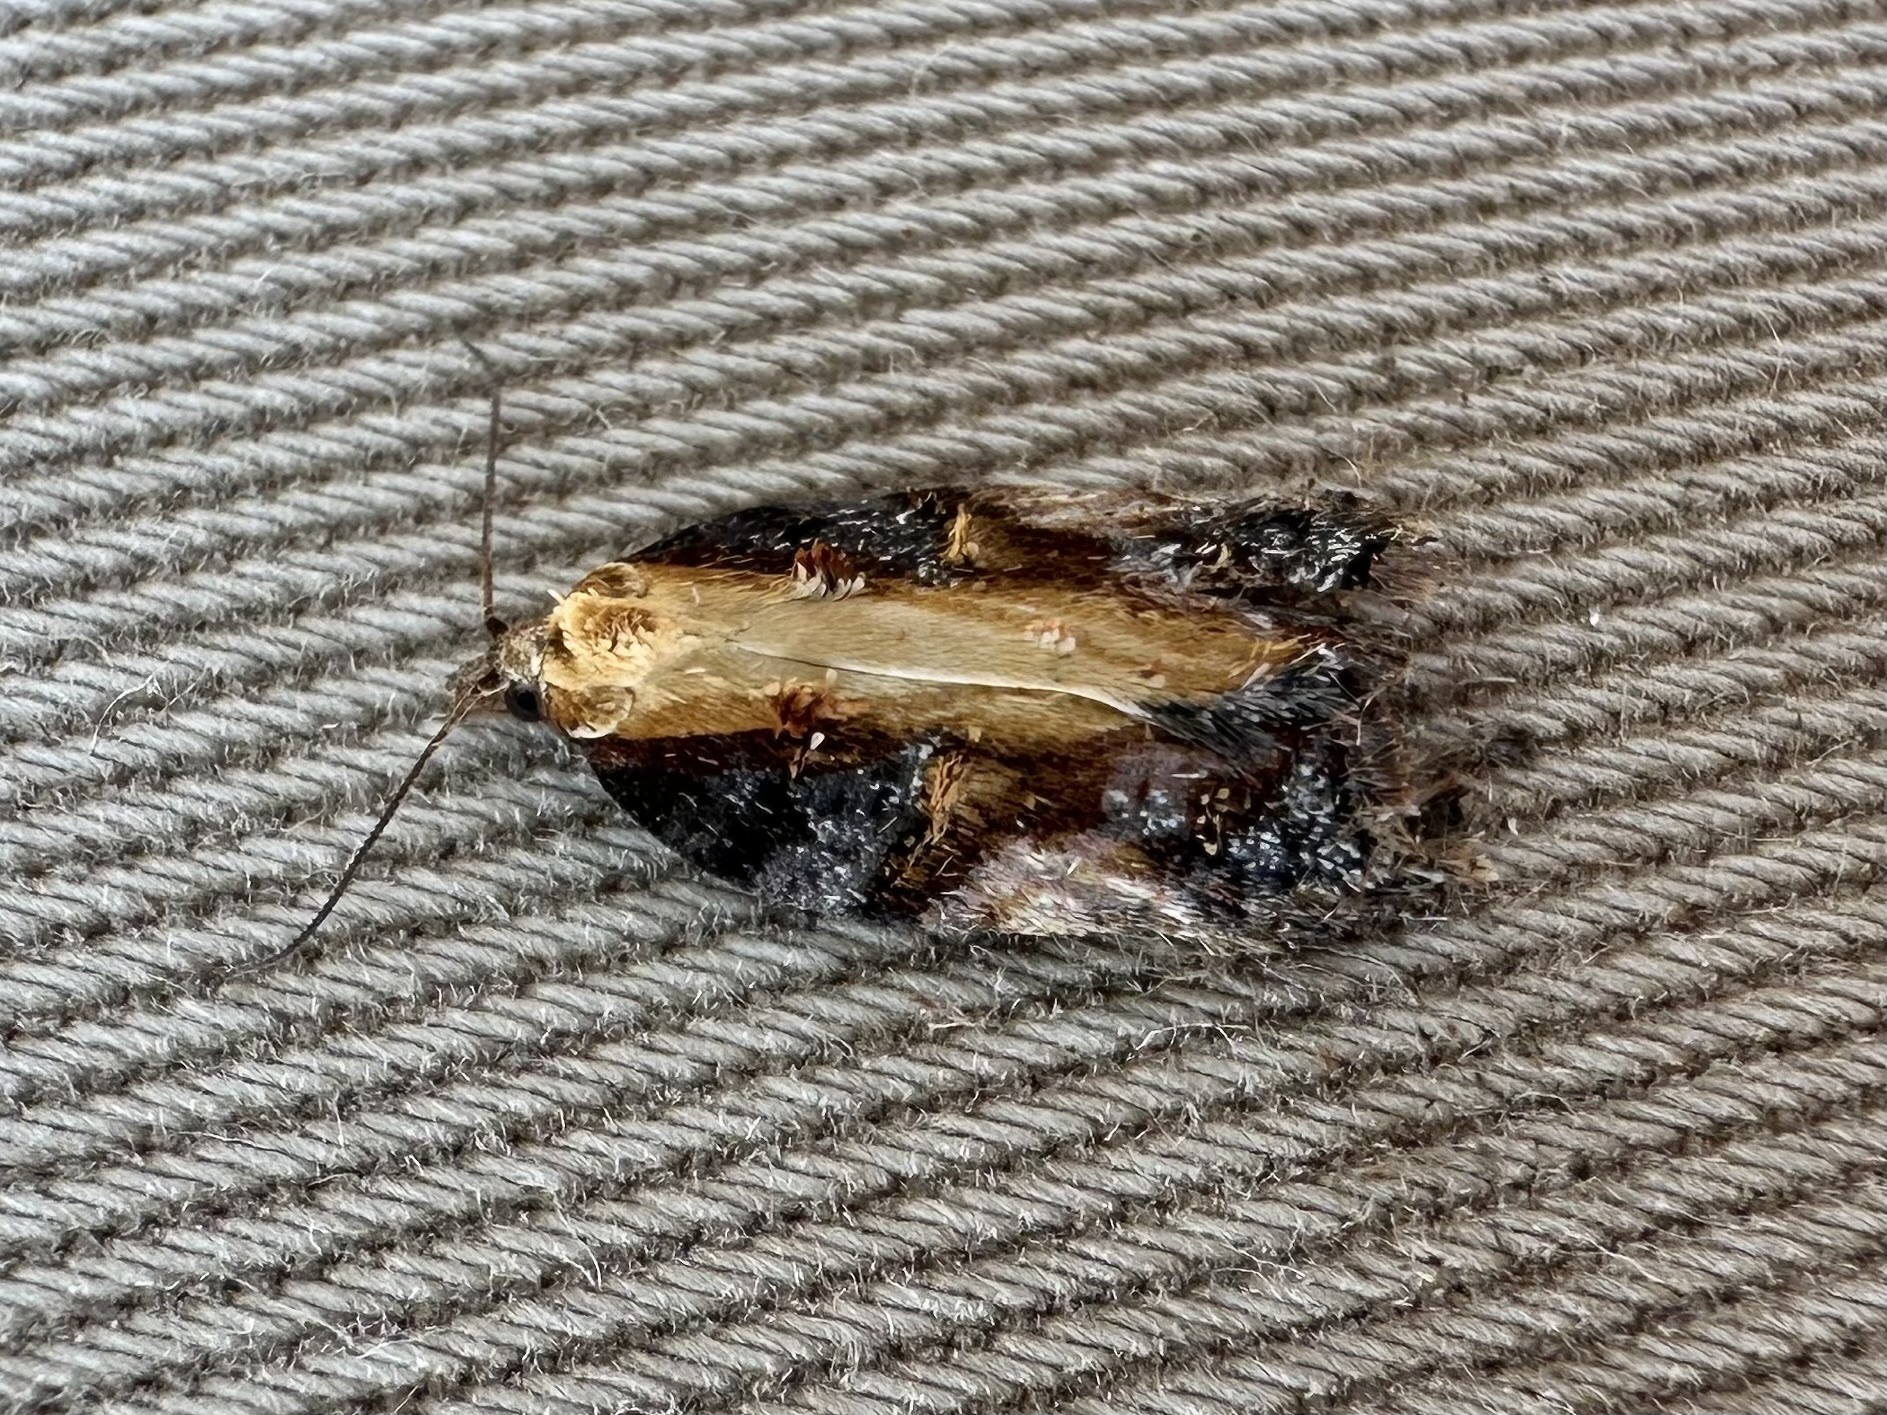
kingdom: Animalia
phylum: Arthropoda
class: Insecta
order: Lepidoptera
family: Tortricidae
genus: Acleris
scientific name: Acleris robinsoniana
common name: Robinson's acleris moth
